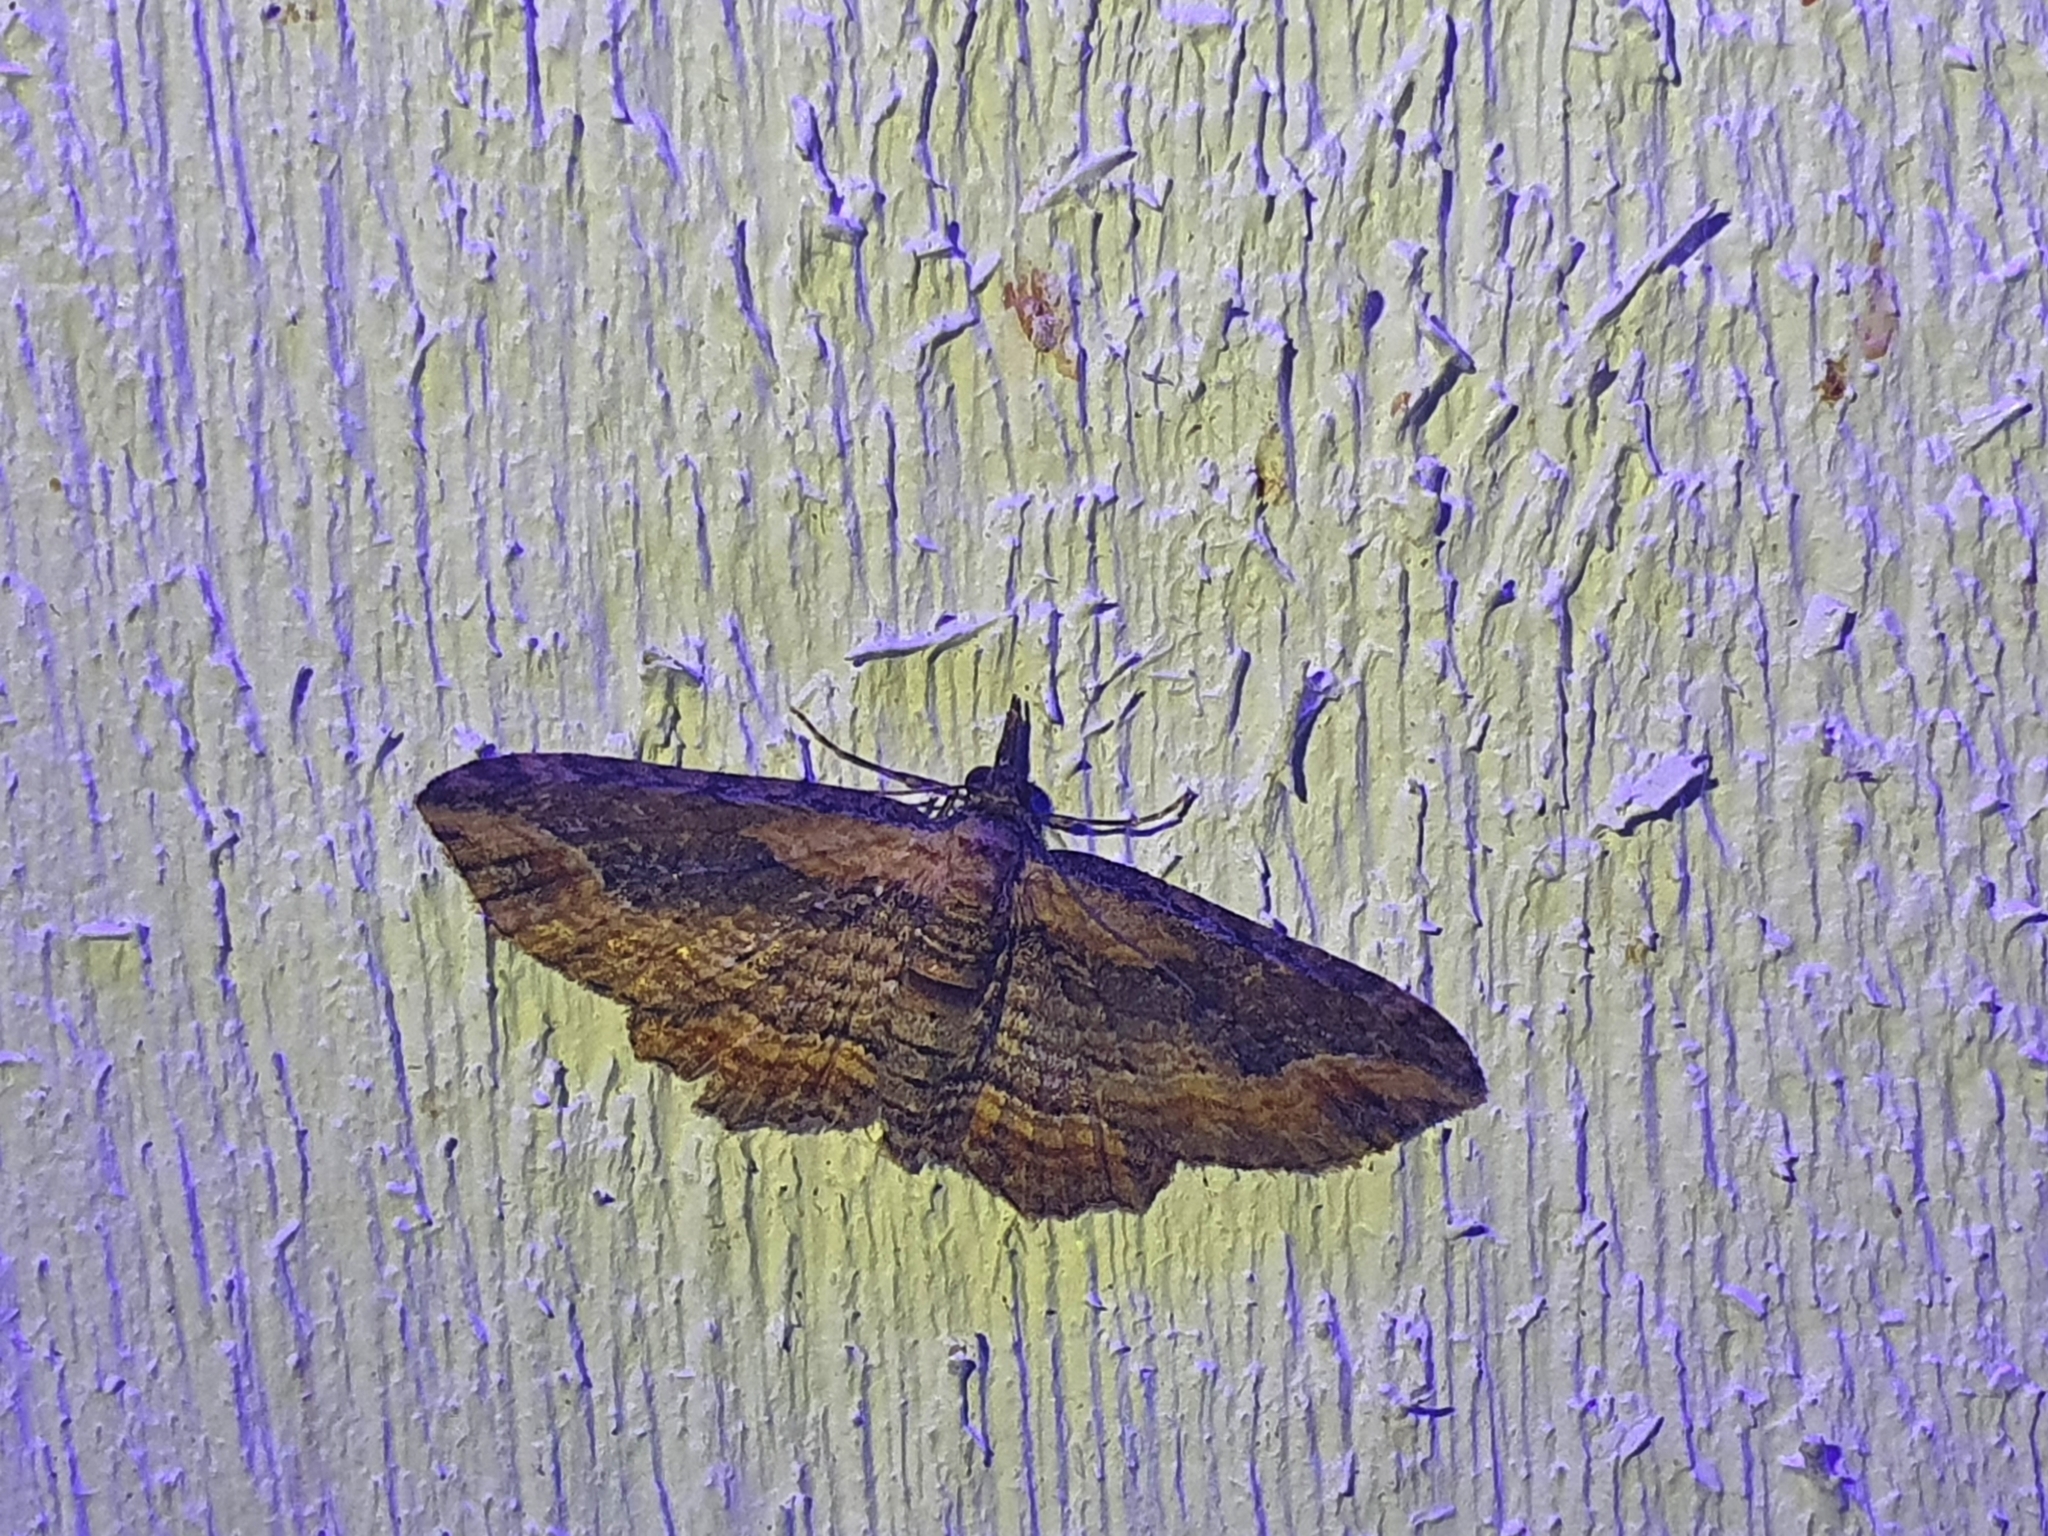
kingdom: Animalia
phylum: Arthropoda
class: Insecta
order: Lepidoptera
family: Geometridae
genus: Chloroclystis
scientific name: Chloroclystis filata
